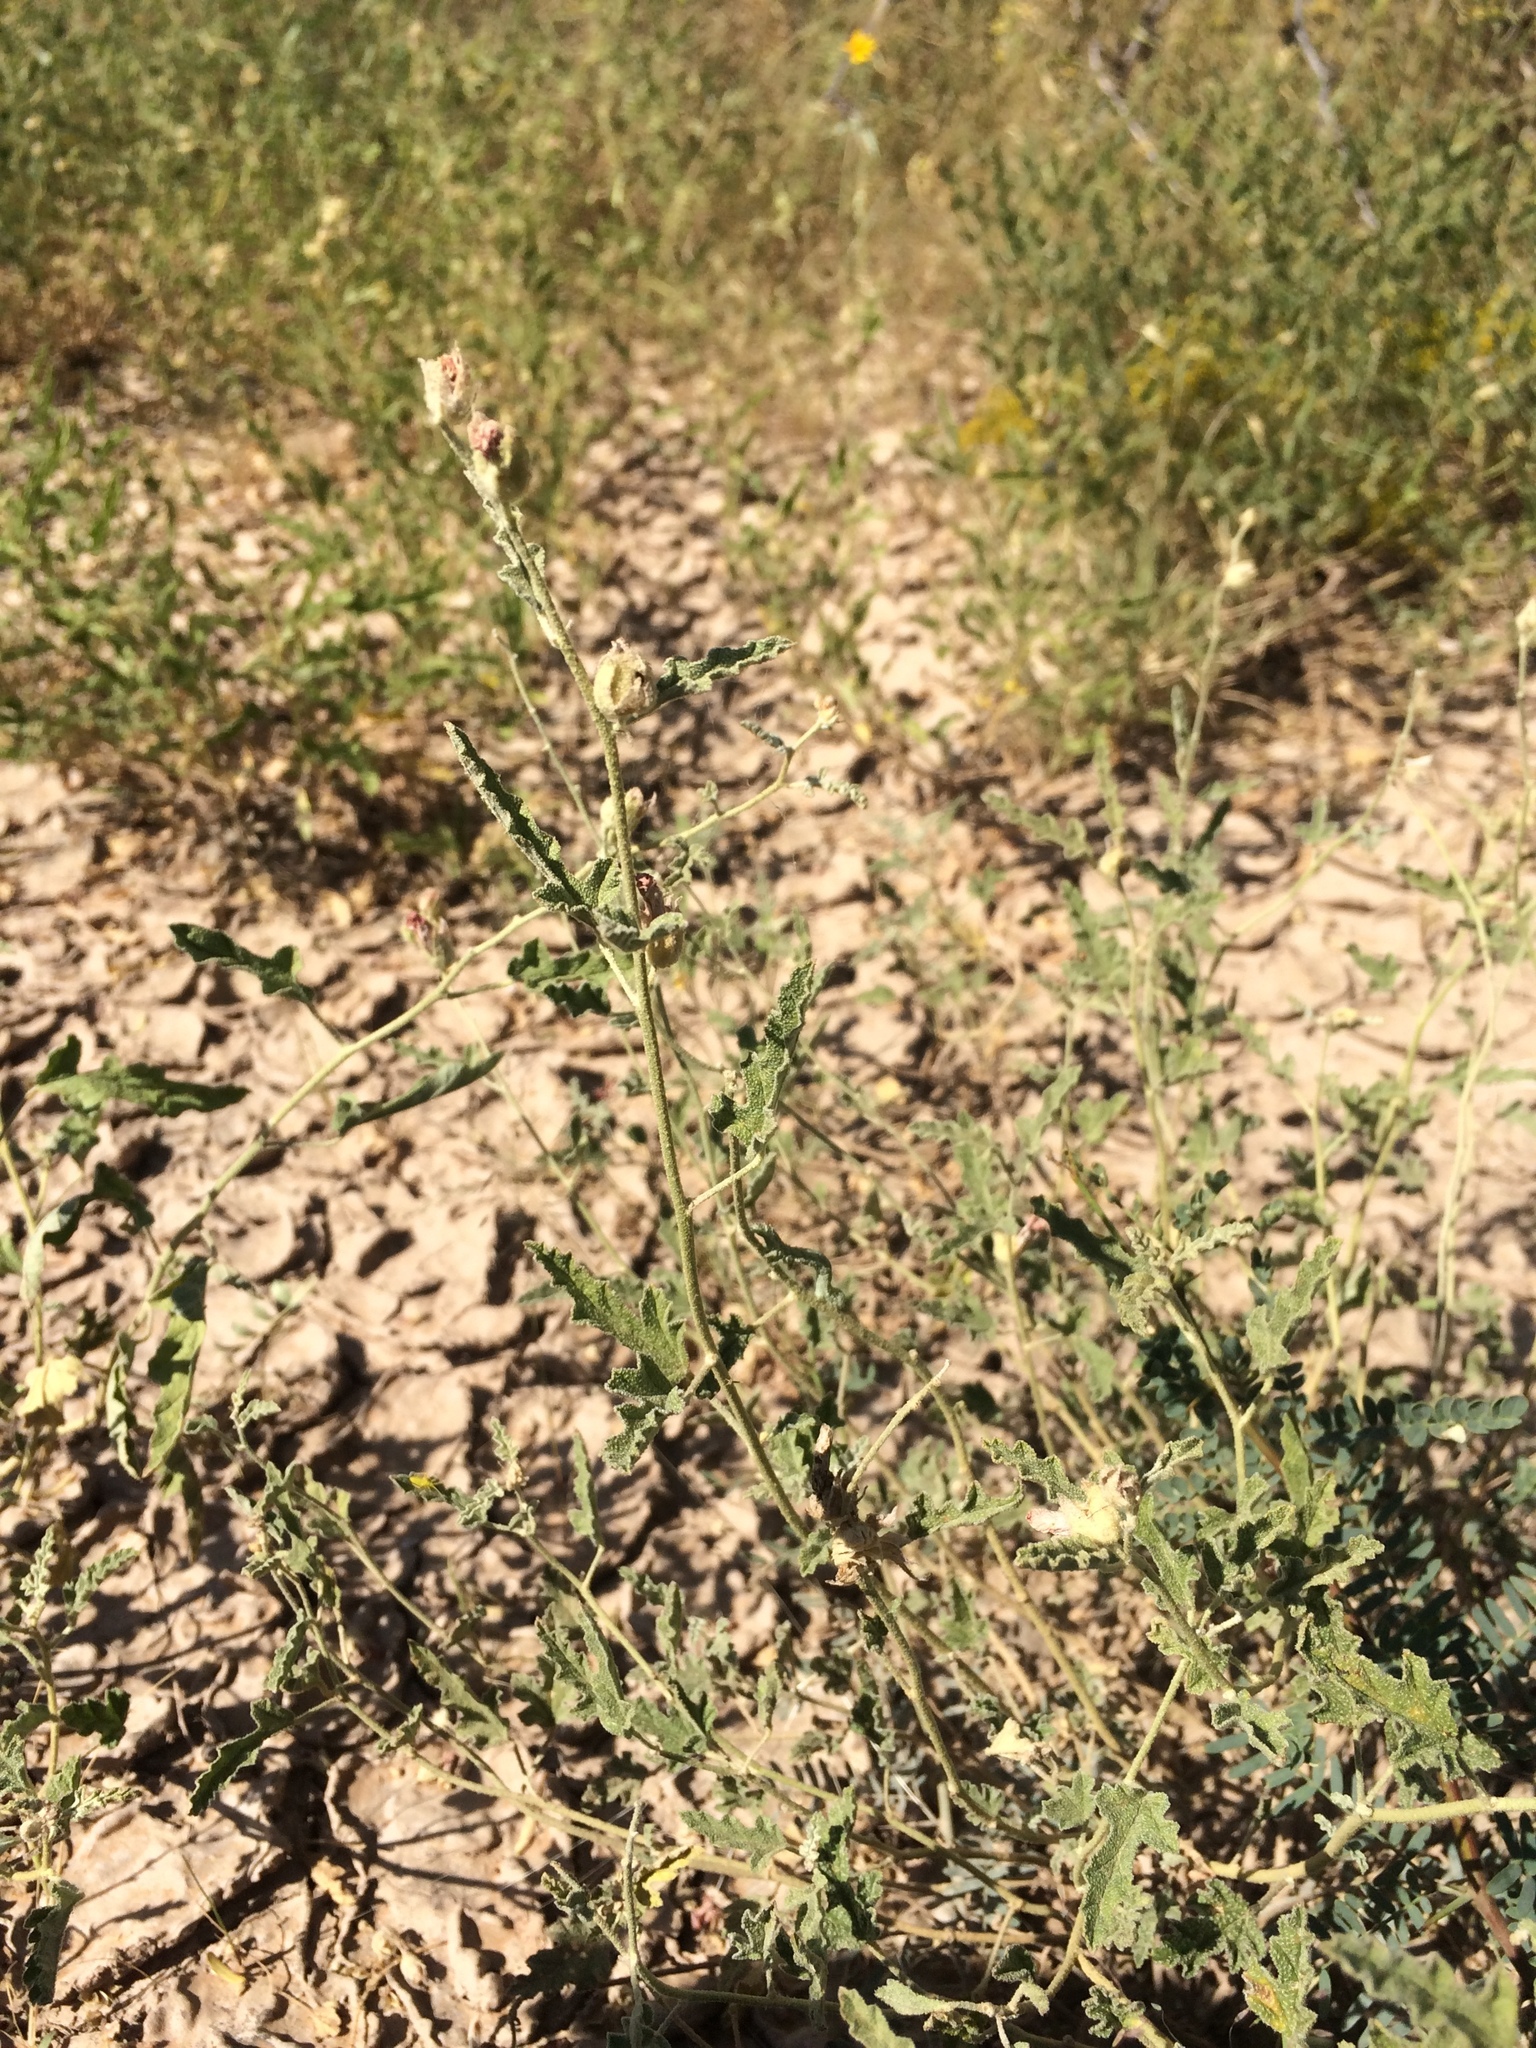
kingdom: Plantae
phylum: Tracheophyta
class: Magnoliopsida
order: Malvales
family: Malvaceae
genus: Sphaeralcea
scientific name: Sphaeralcea hastulata
